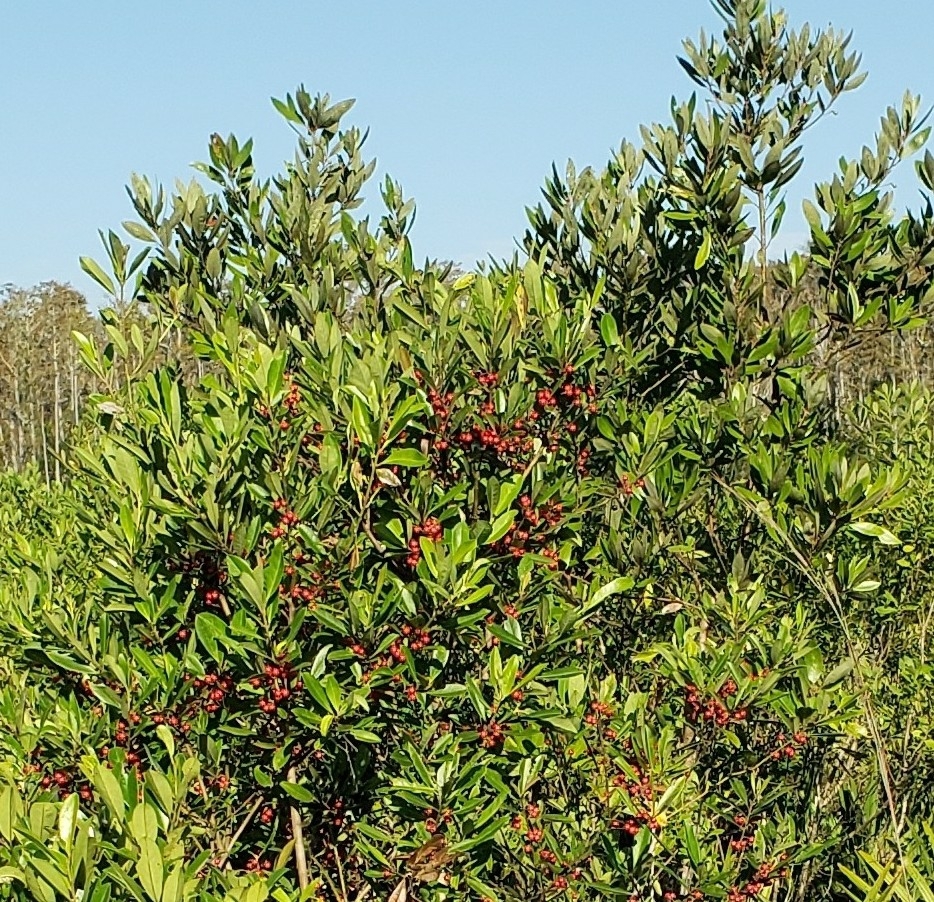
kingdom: Plantae
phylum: Tracheophyta
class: Magnoliopsida
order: Aquifoliales
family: Aquifoliaceae
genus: Ilex
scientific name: Ilex cassine
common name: Dahoon
